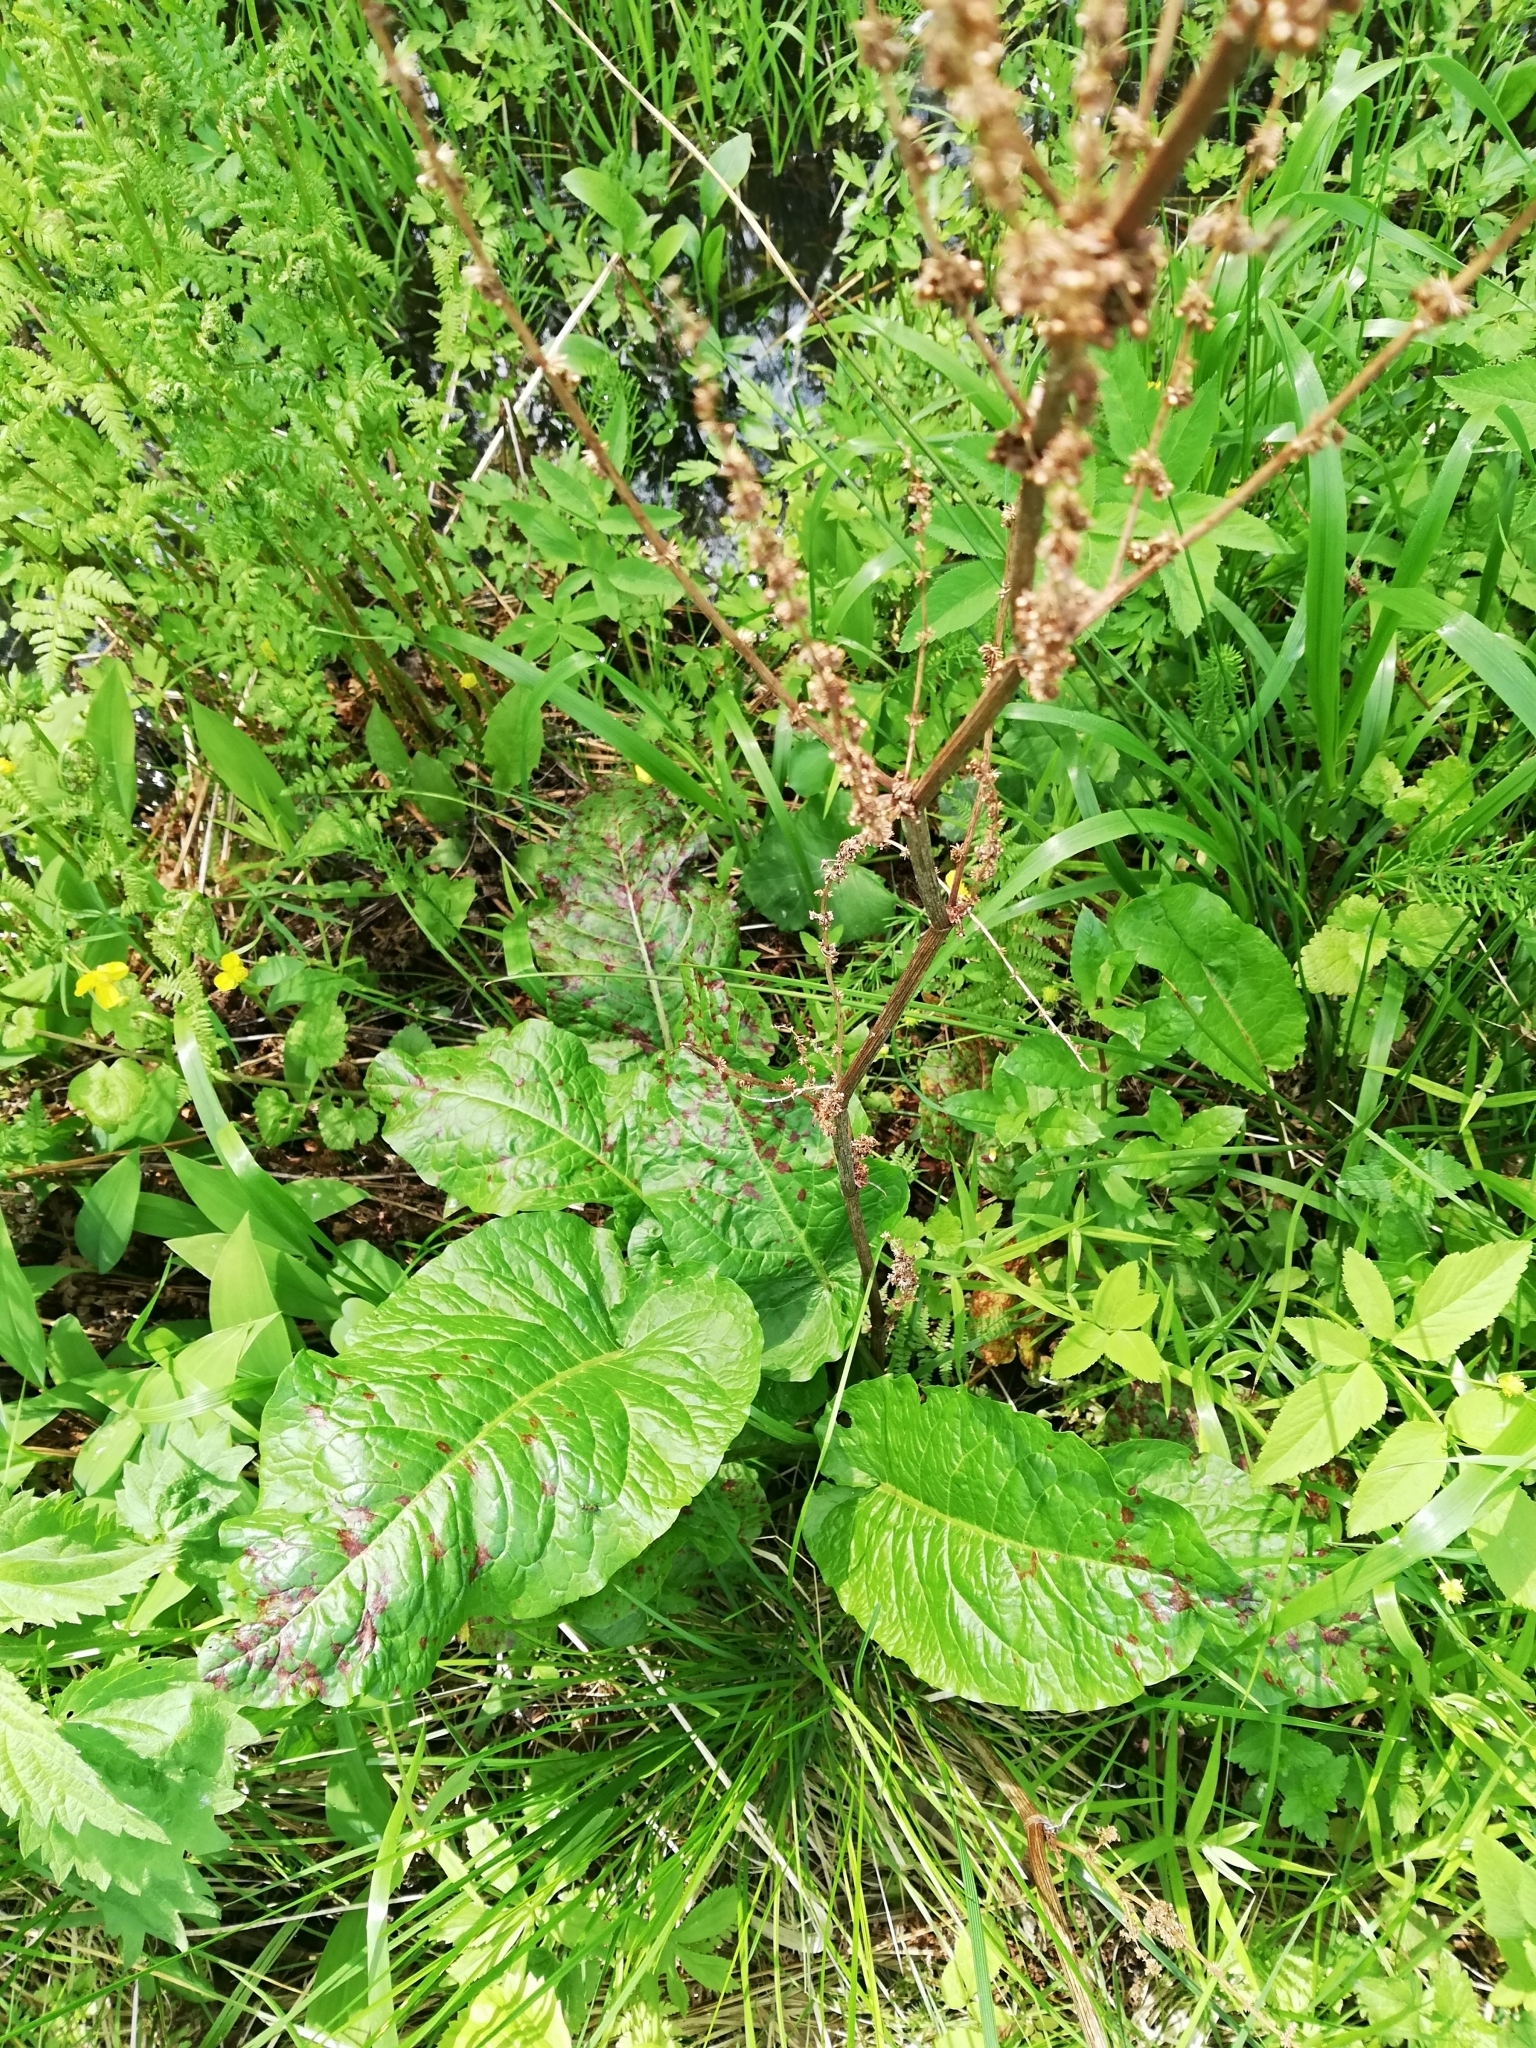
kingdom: Plantae
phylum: Tracheophyta
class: Magnoliopsida
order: Caryophyllales
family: Polygonaceae
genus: Rumex
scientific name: Rumex obtusifolius
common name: Bitter dock
